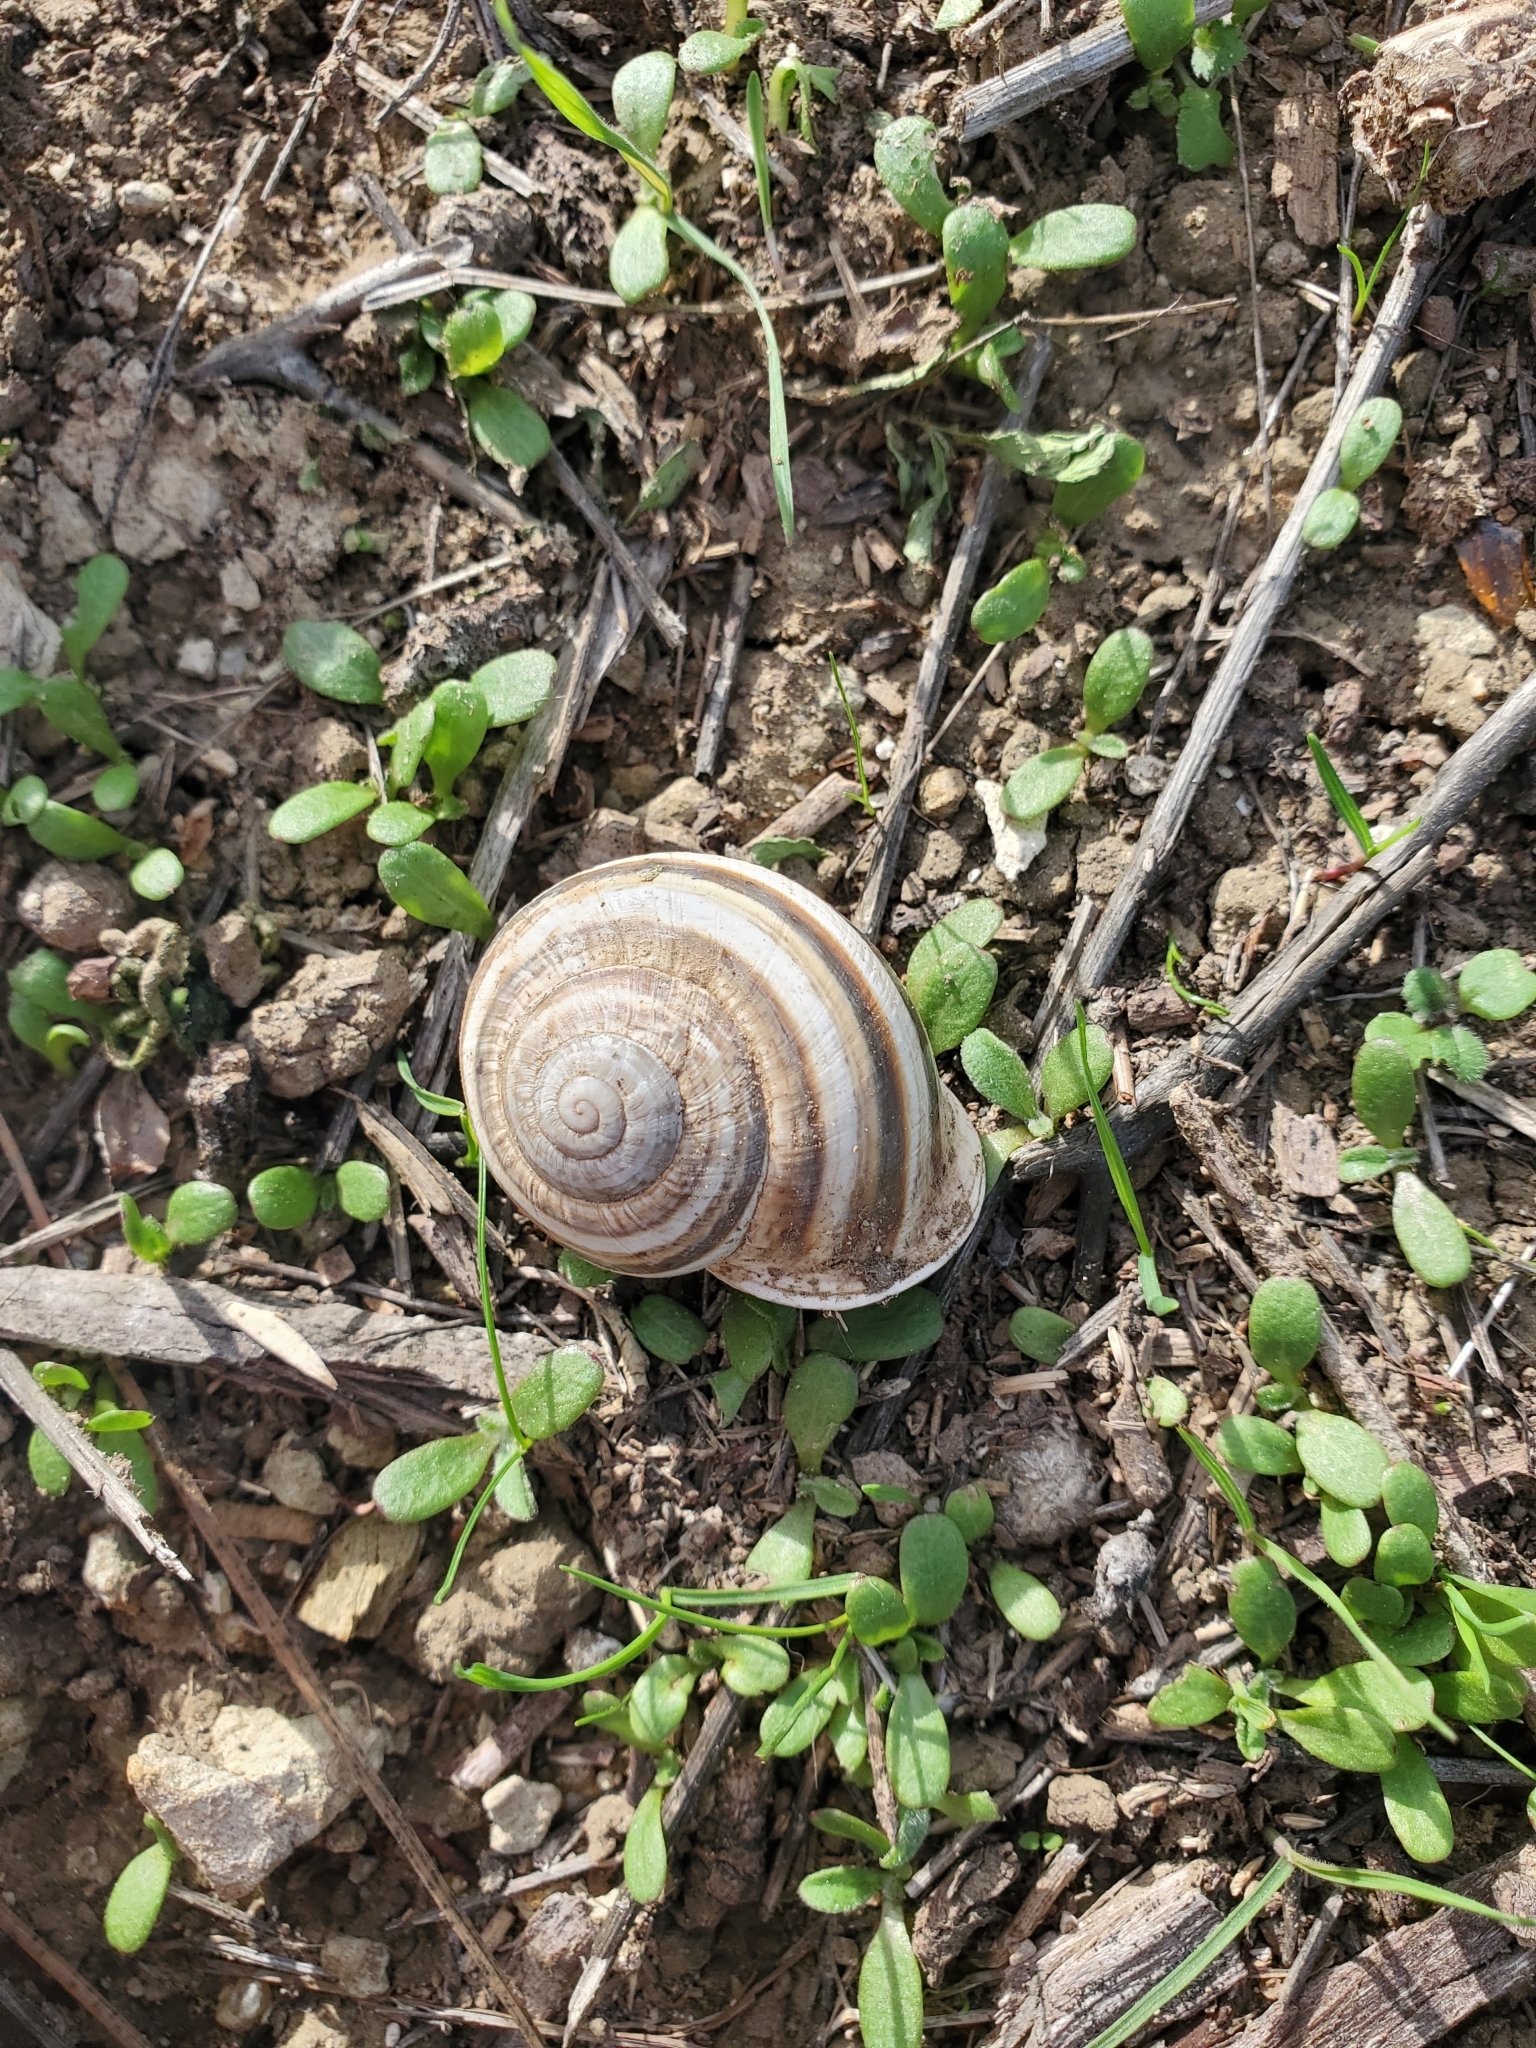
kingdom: Animalia
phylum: Mollusca
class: Gastropoda
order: Stylommatophora
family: Helicidae
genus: Otala
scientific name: Otala lactea
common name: Milk snail
